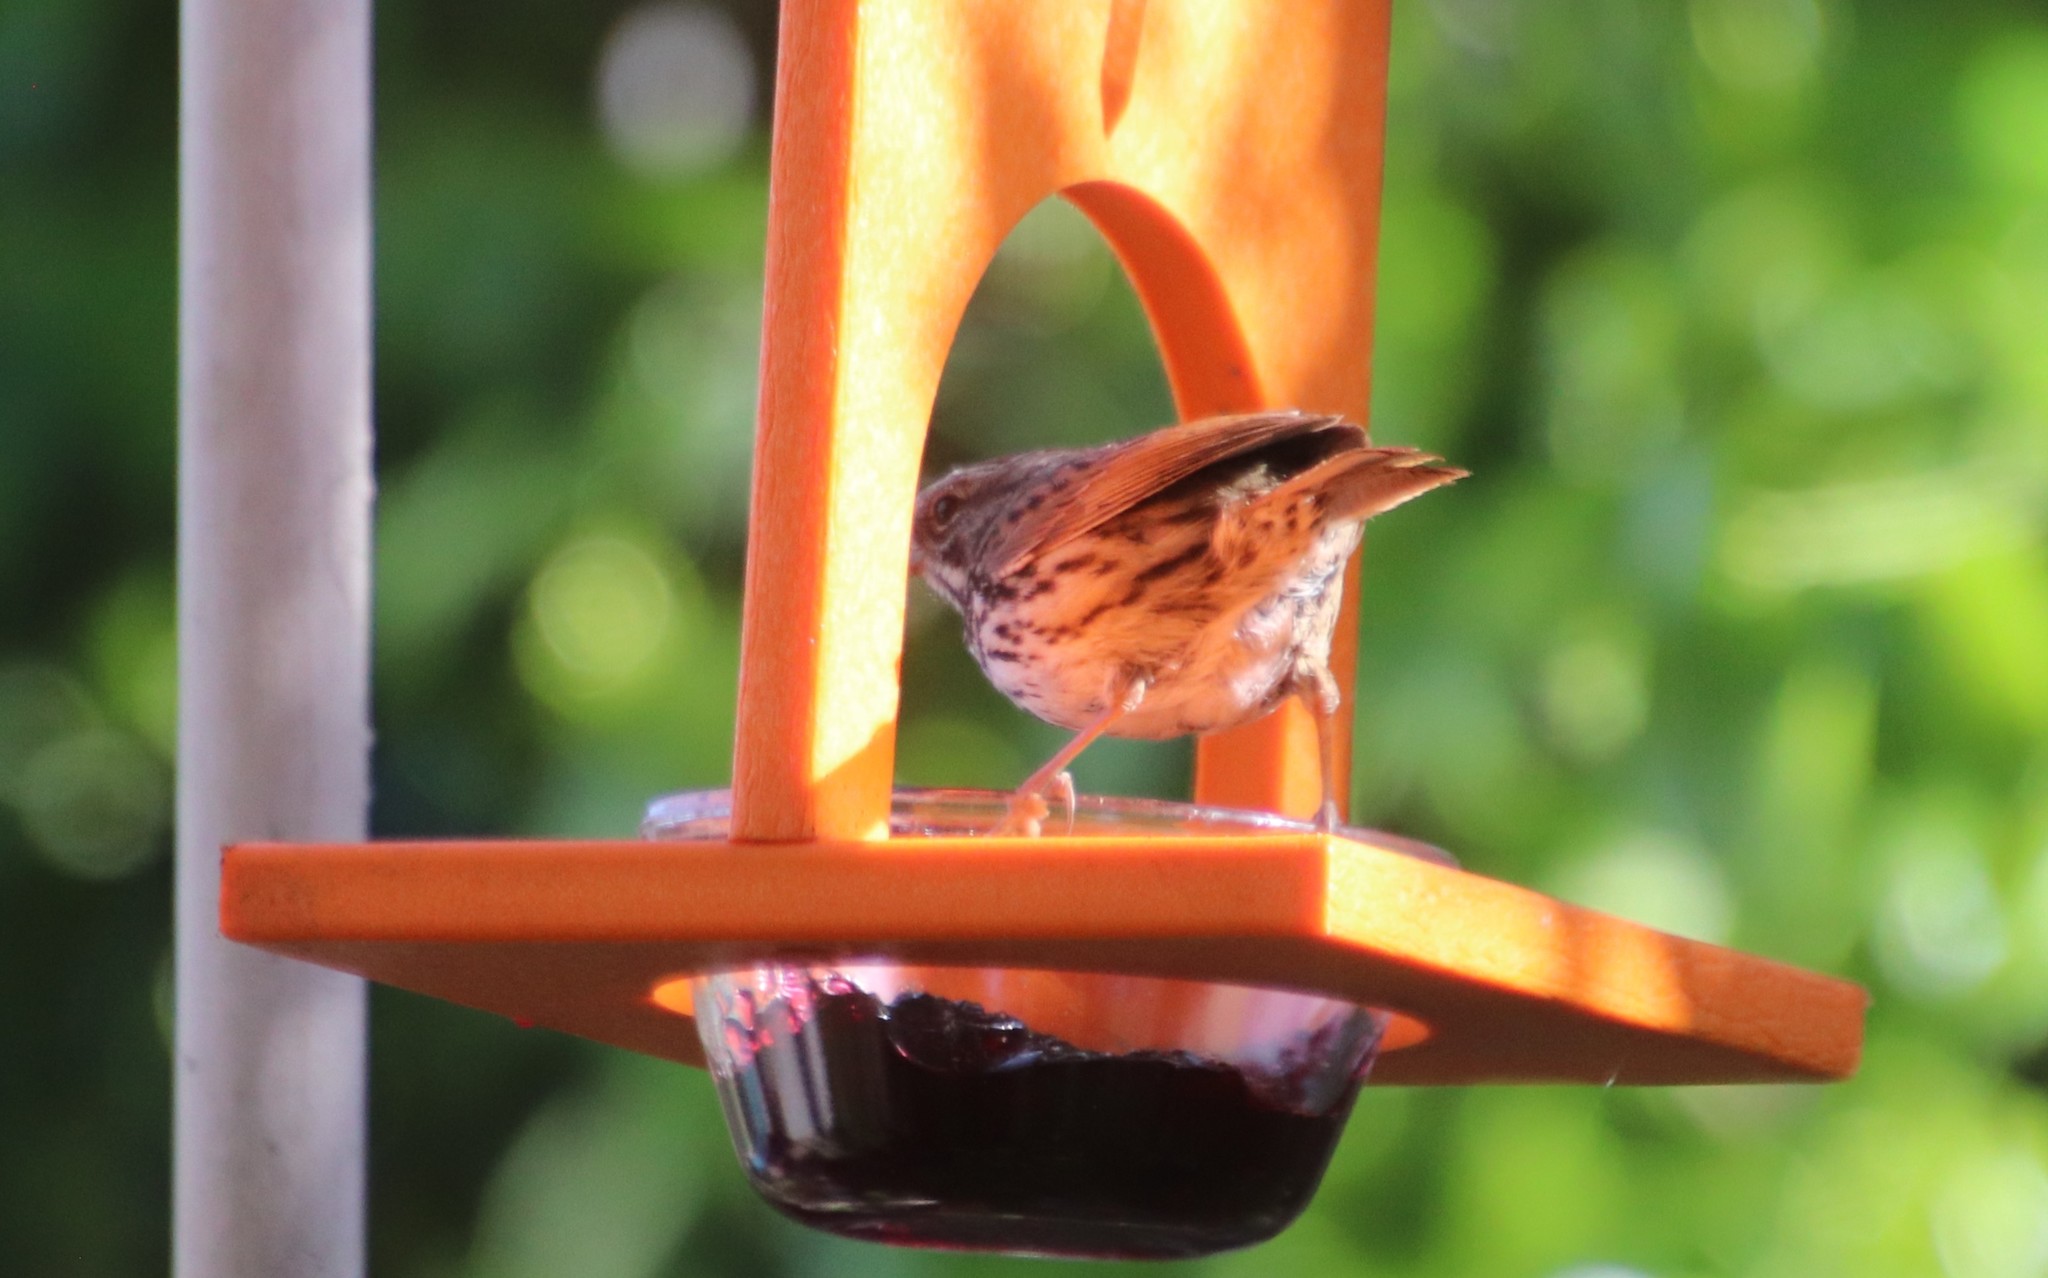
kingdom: Animalia
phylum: Chordata
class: Aves
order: Passeriformes
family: Passerellidae
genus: Melospiza
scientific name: Melospiza melodia
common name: Song sparrow
